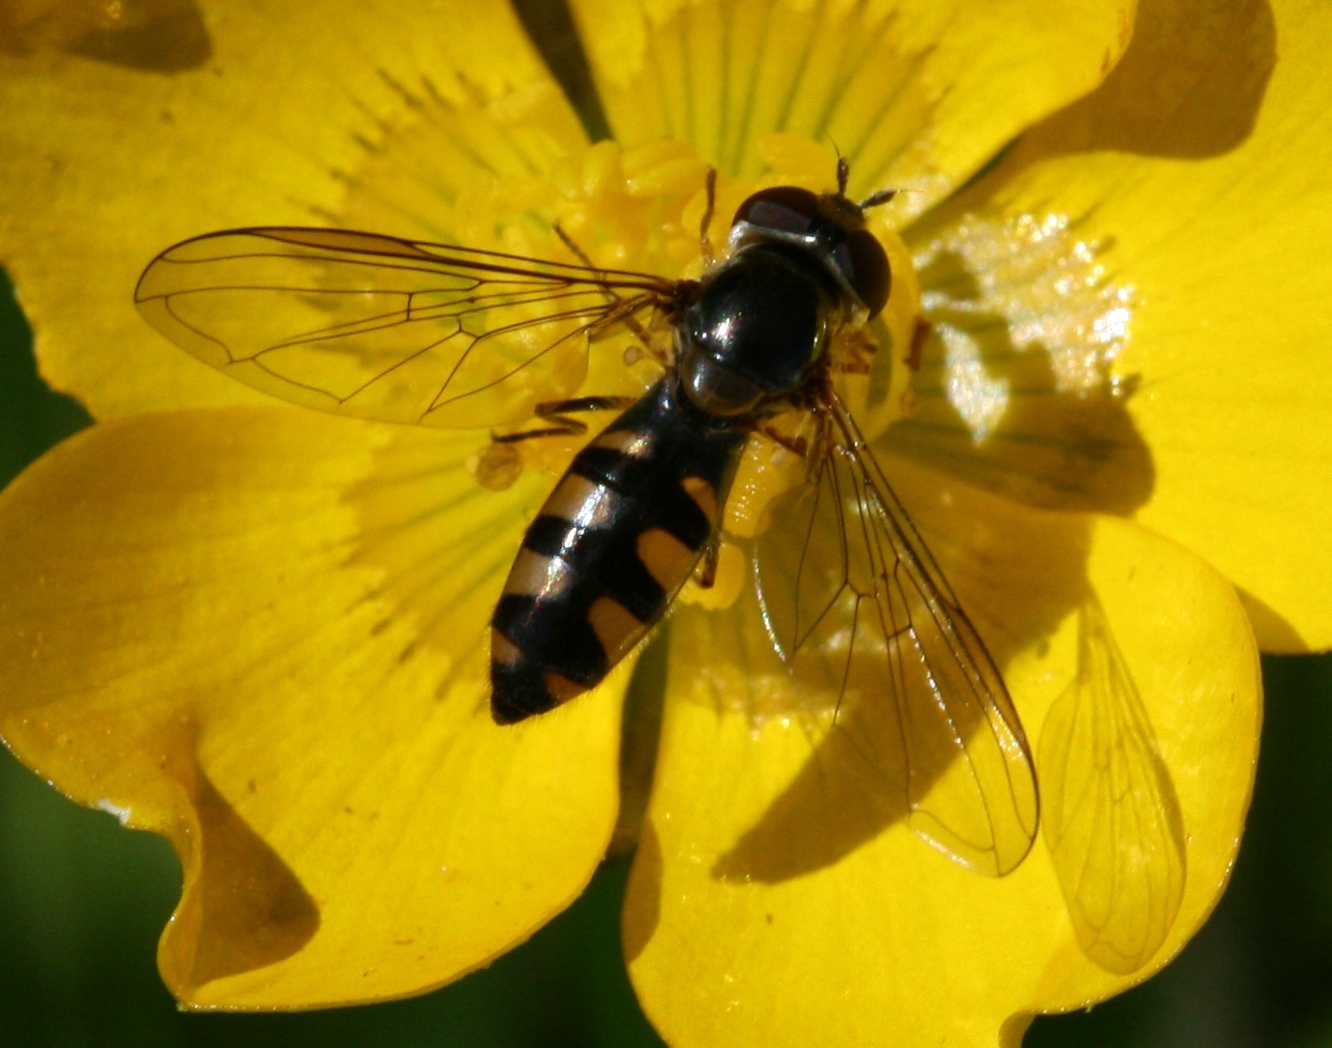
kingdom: Animalia
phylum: Arthropoda
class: Insecta
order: Diptera
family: Syrphidae
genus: Meliscaeva
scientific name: Meliscaeva auricollis
